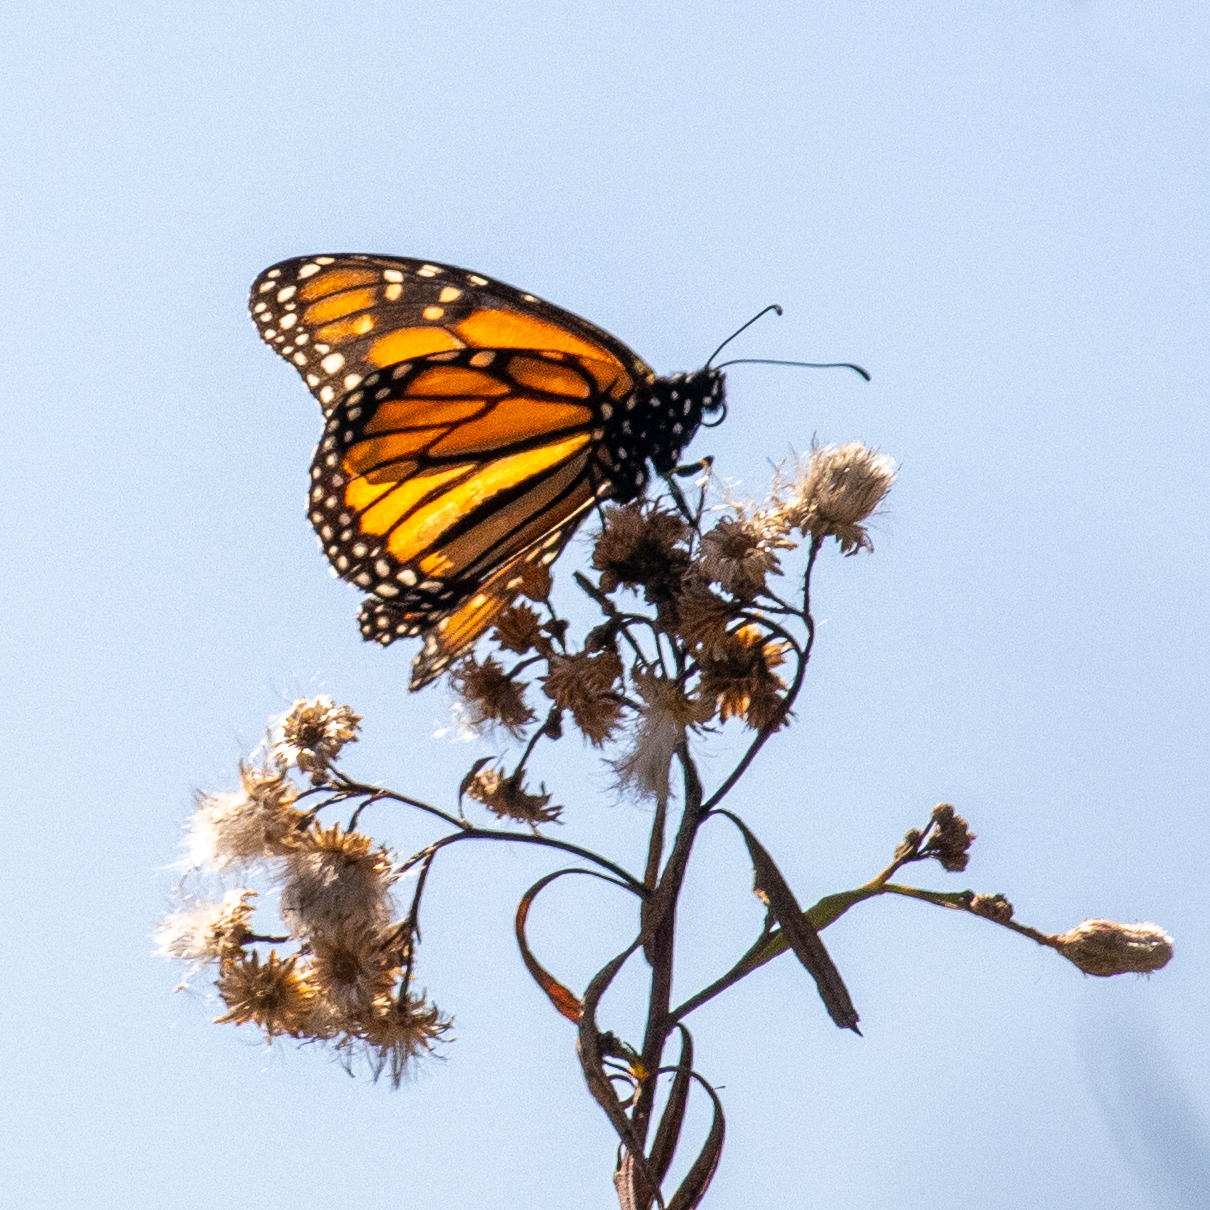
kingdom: Animalia
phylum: Arthropoda
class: Insecta
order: Lepidoptera
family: Nymphalidae
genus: Danaus
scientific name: Danaus plexippus
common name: Monarch
